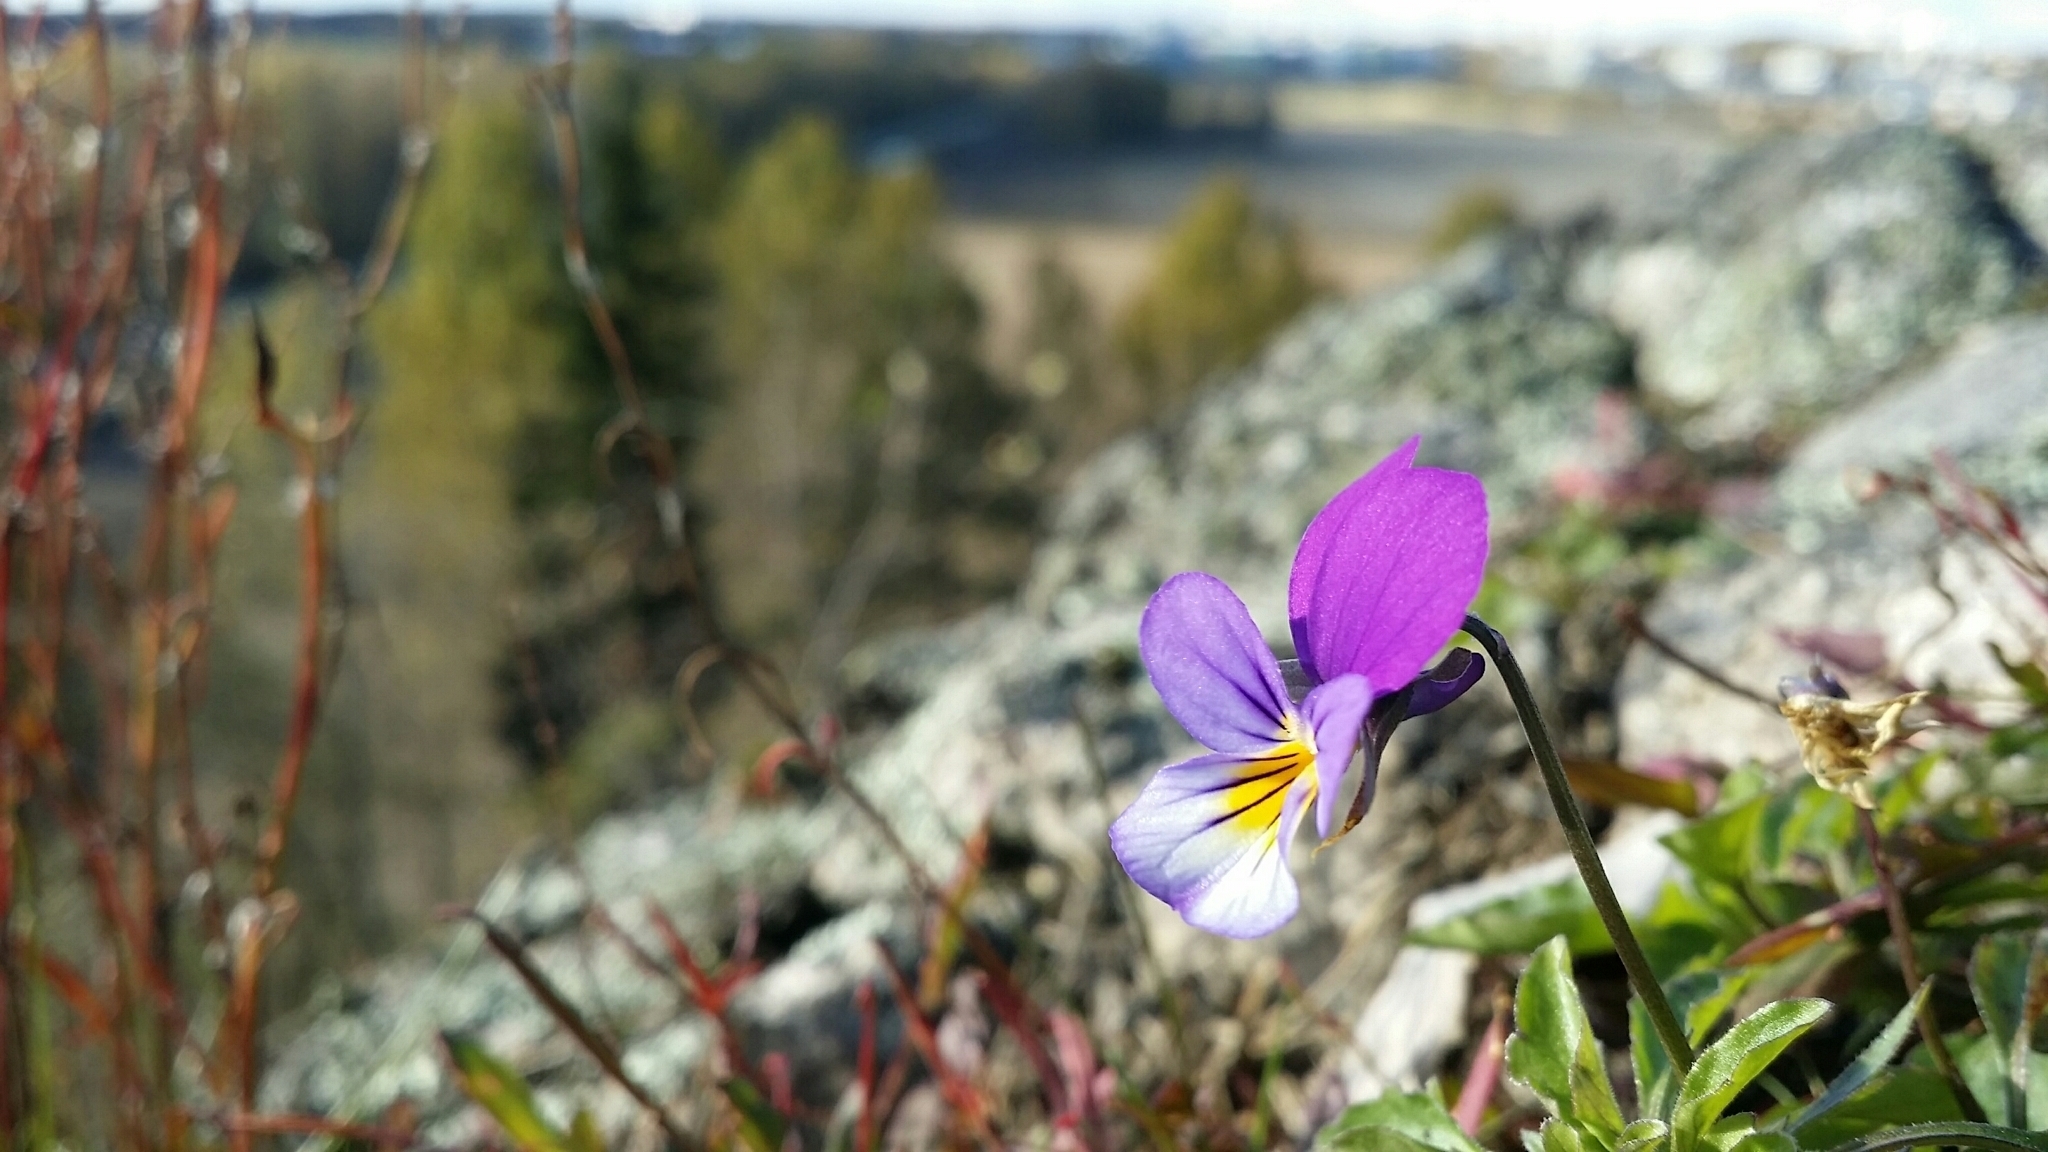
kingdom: Plantae
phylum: Tracheophyta
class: Magnoliopsida
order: Malpighiales
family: Violaceae
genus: Viola
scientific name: Viola tricolor
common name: Pansy
